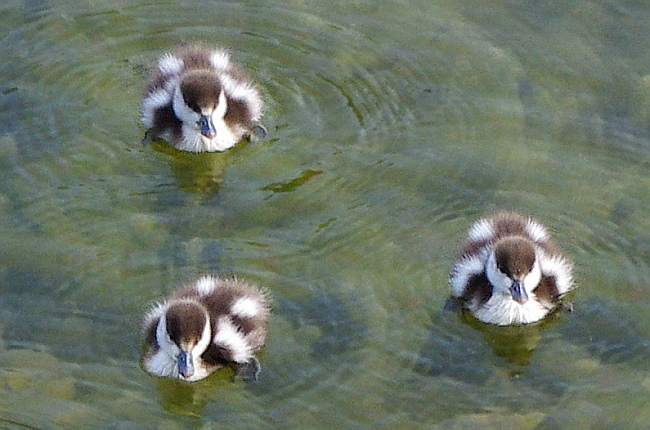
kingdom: Animalia
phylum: Chordata
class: Aves
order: Anseriformes
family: Anatidae
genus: Tadorna
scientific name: Tadorna ferruginea
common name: Ruddy shelduck
